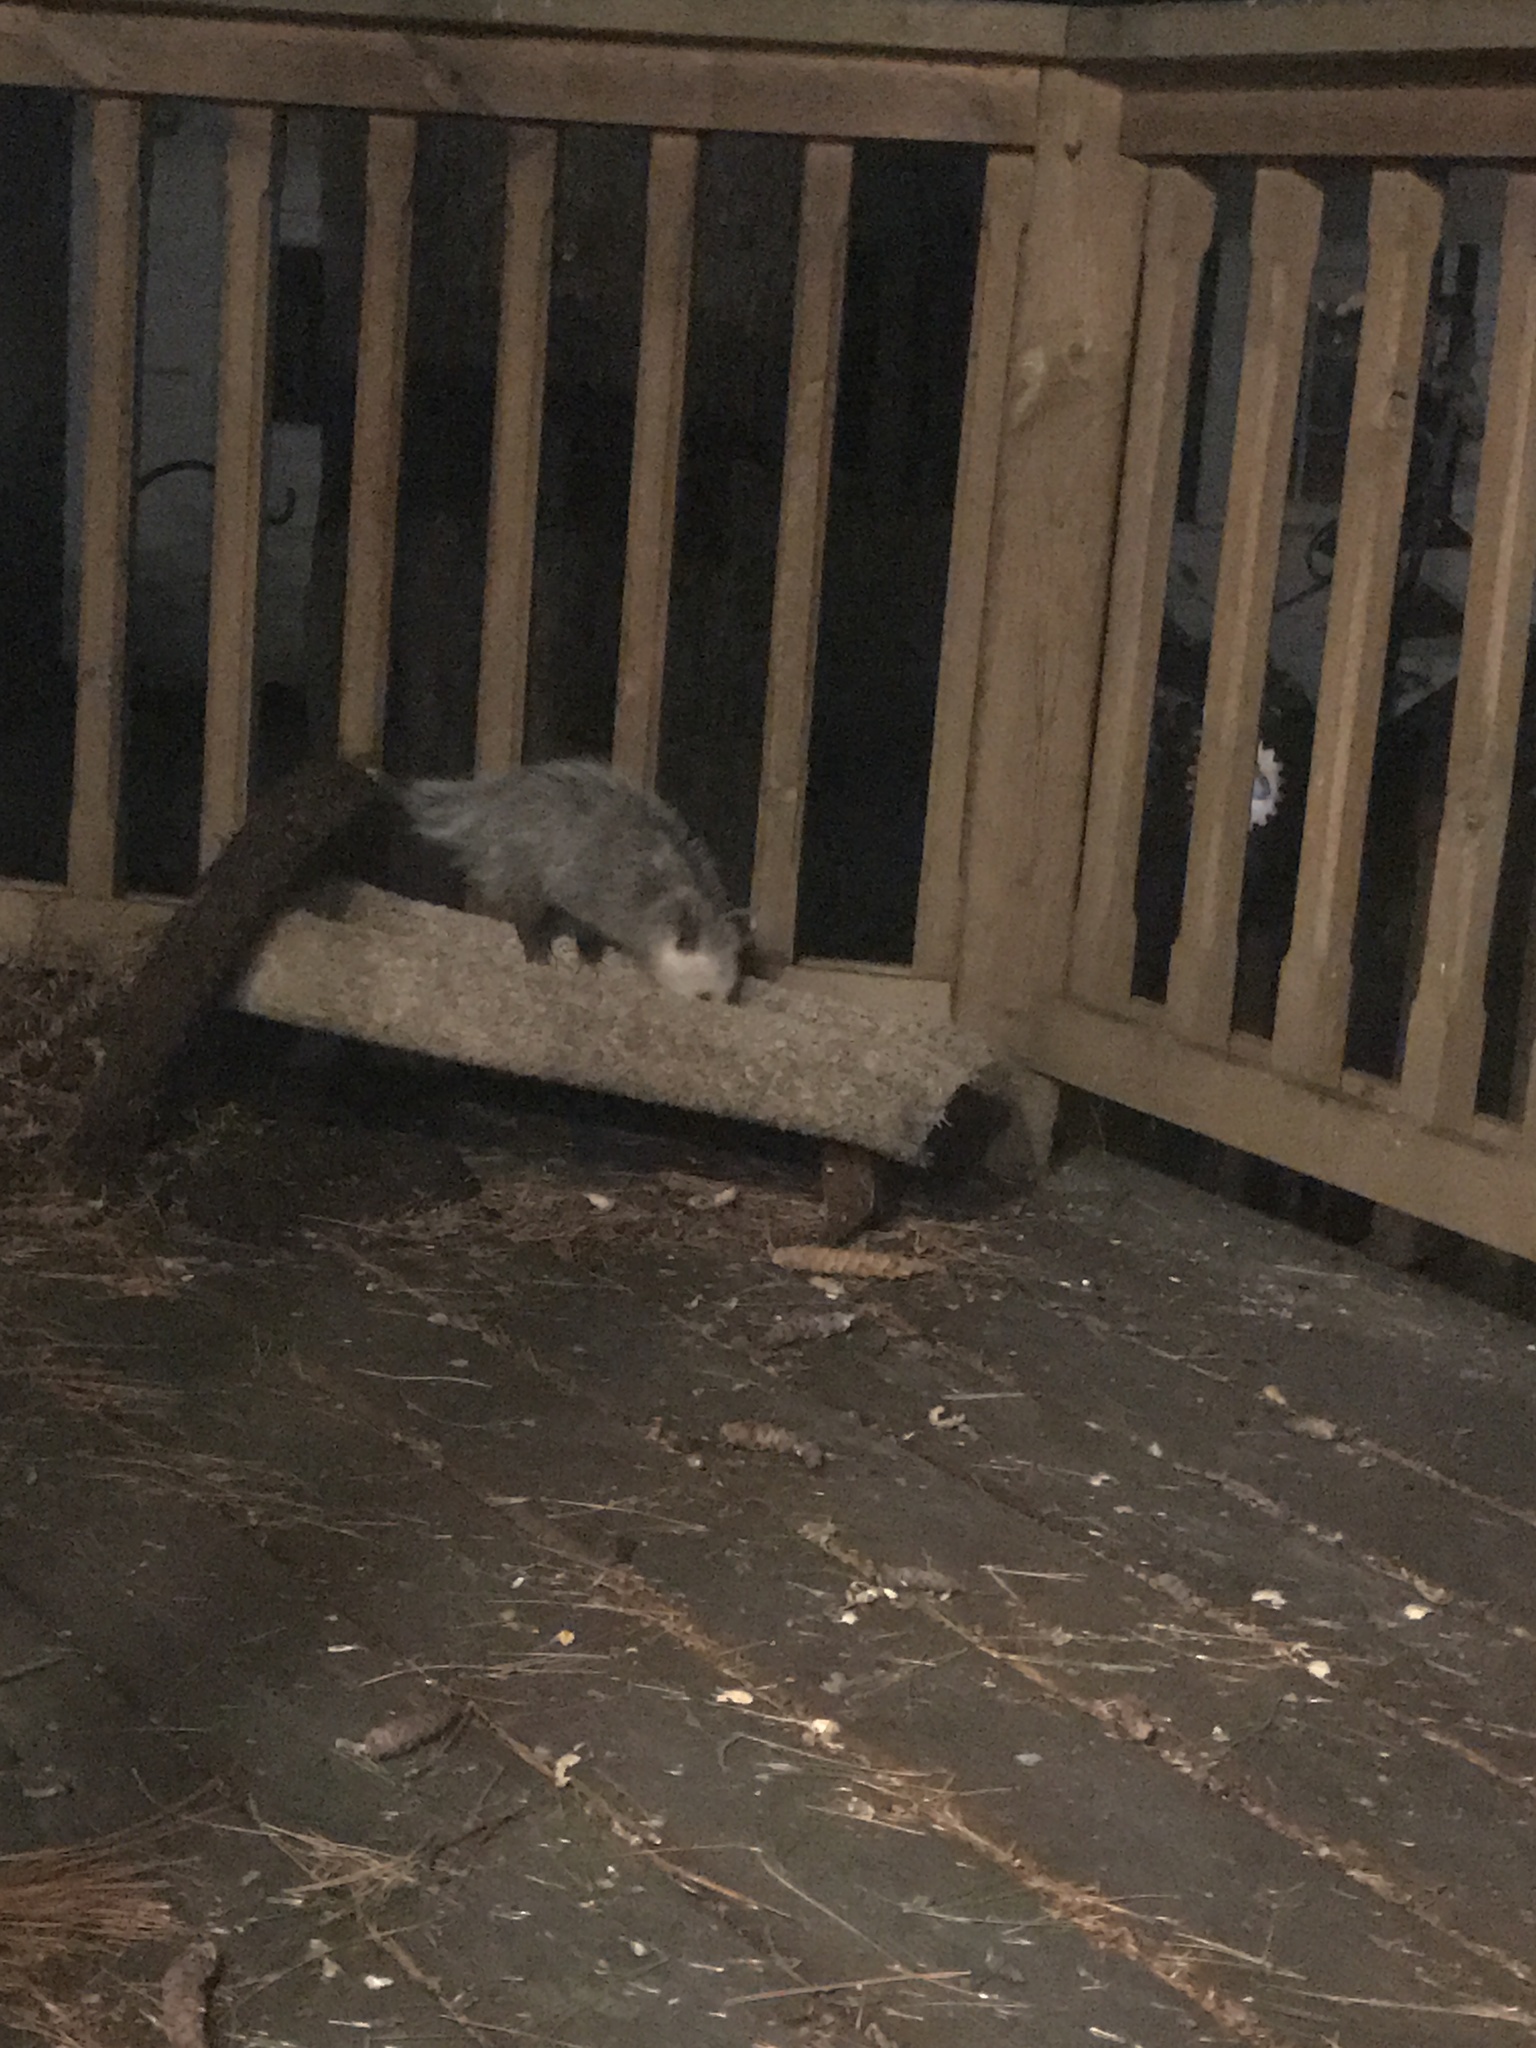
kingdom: Animalia
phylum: Chordata
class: Mammalia
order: Didelphimorphia
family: Didelphidae
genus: Didelphis
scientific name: Didelphis virginiana
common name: Virginia opossum
